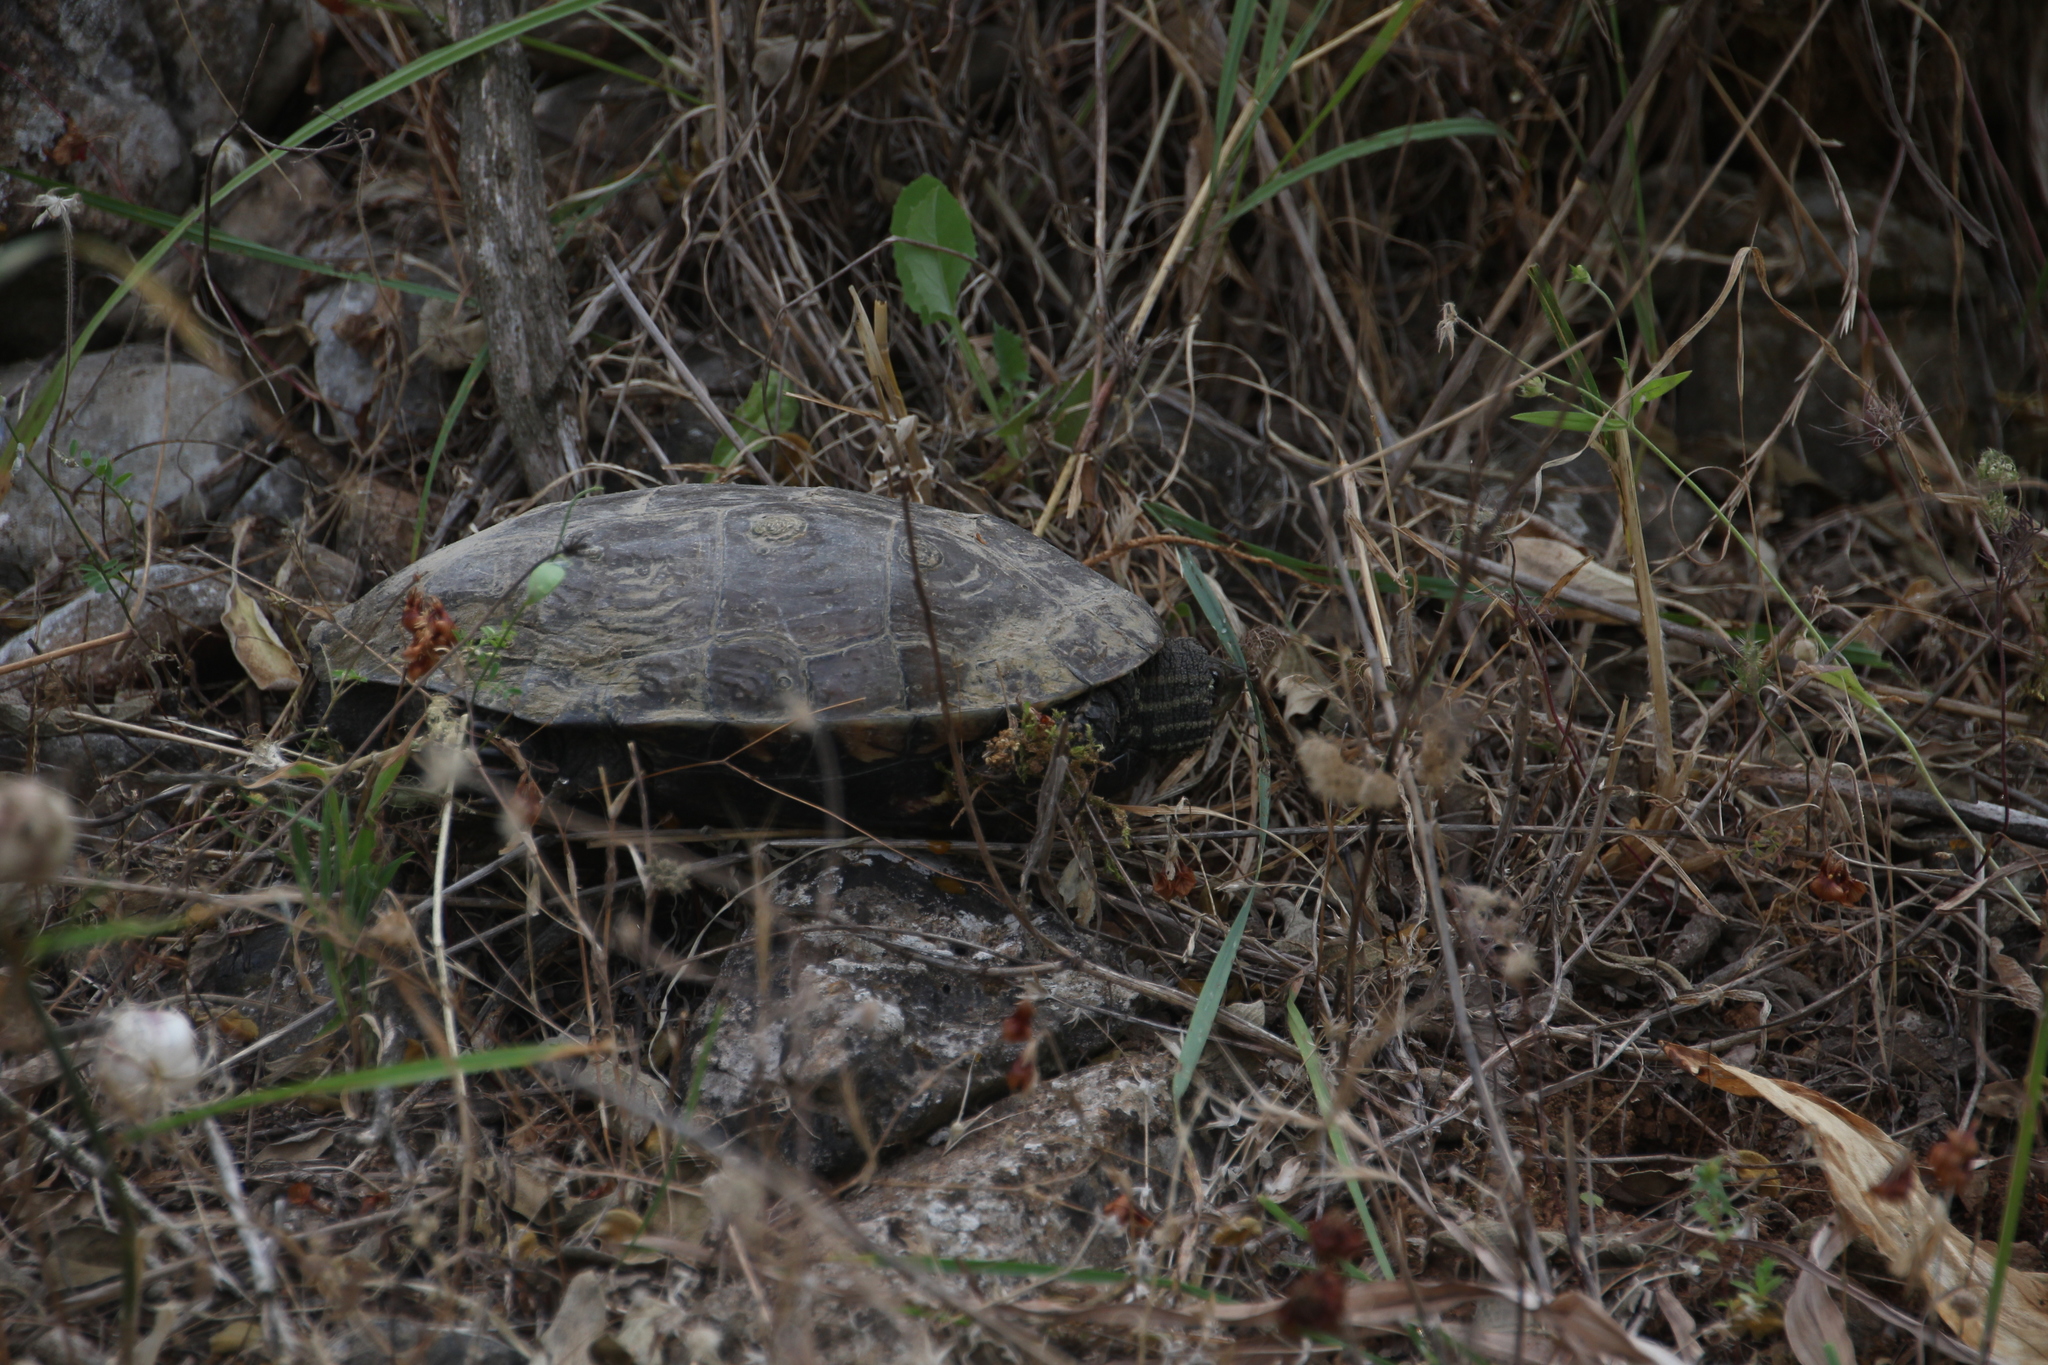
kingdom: Animalia
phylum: Chordata
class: Testudines
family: Geoemydidae
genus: Mauremys
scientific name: Mauremys rivulata
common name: Western caspian turtle
